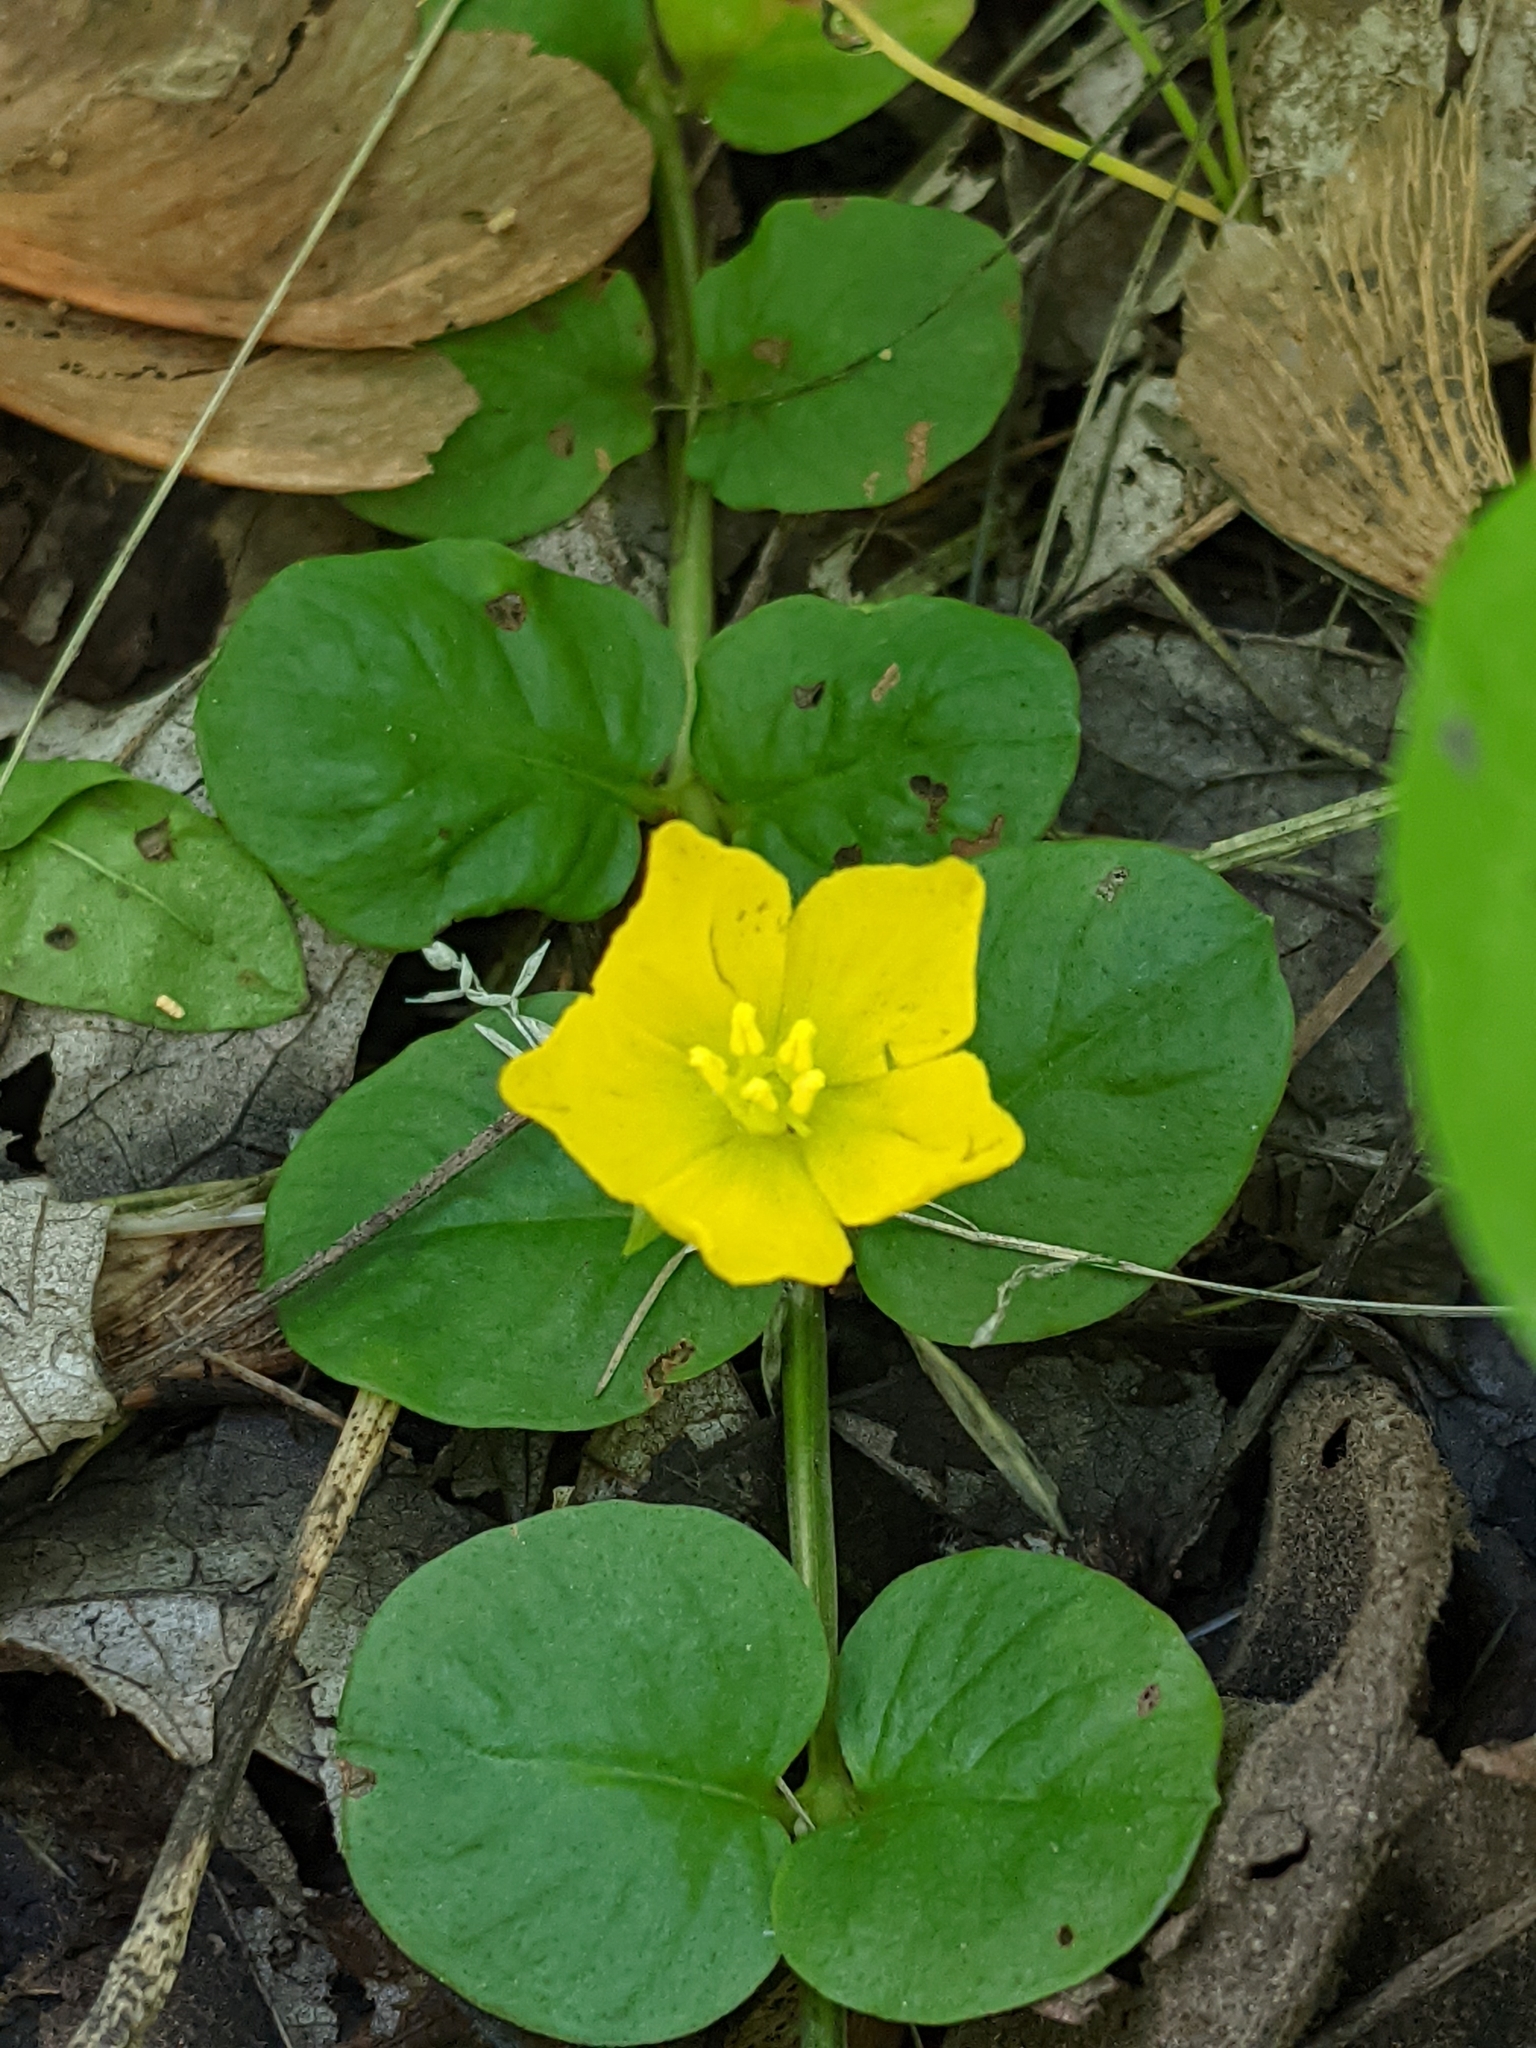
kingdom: Plantae
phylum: Tracheophyta
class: Magnoliopsida
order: Ericales
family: Primulaceae
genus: Lysimachia
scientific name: Lysimachia nummularia
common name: Moneywort
